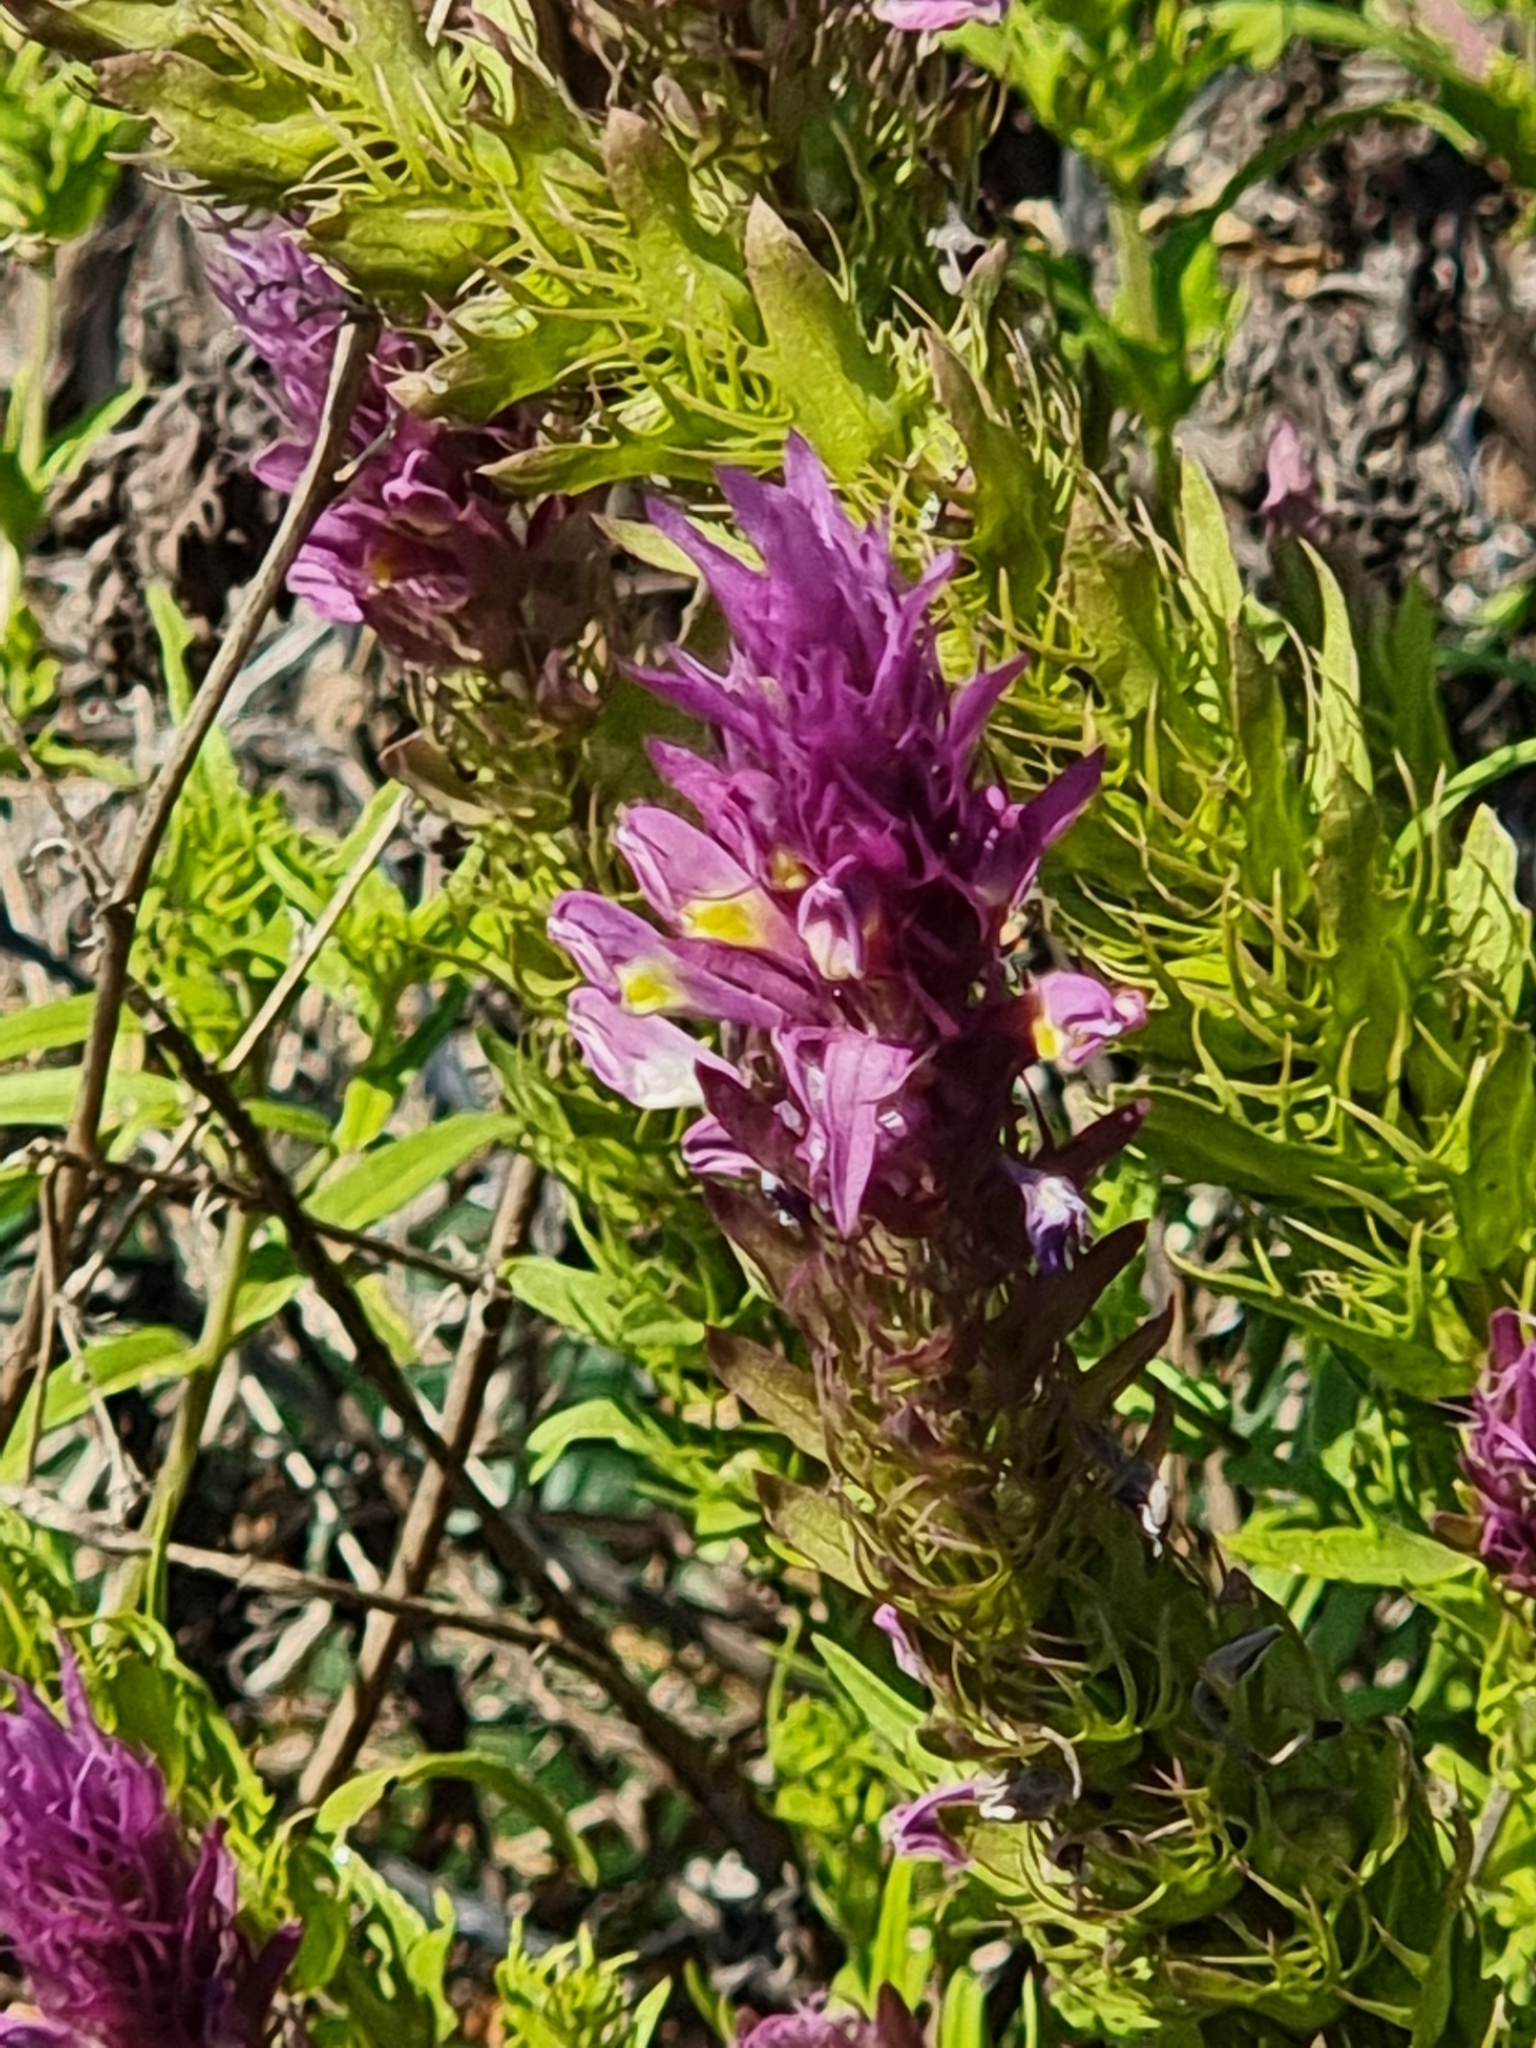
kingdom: Plantae
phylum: Tracheophyta
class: Magnoliopsida
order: Lamiales
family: Orobanchaceae
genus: Melampyrum
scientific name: Melampyrum arvense
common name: Field cow-wheat
